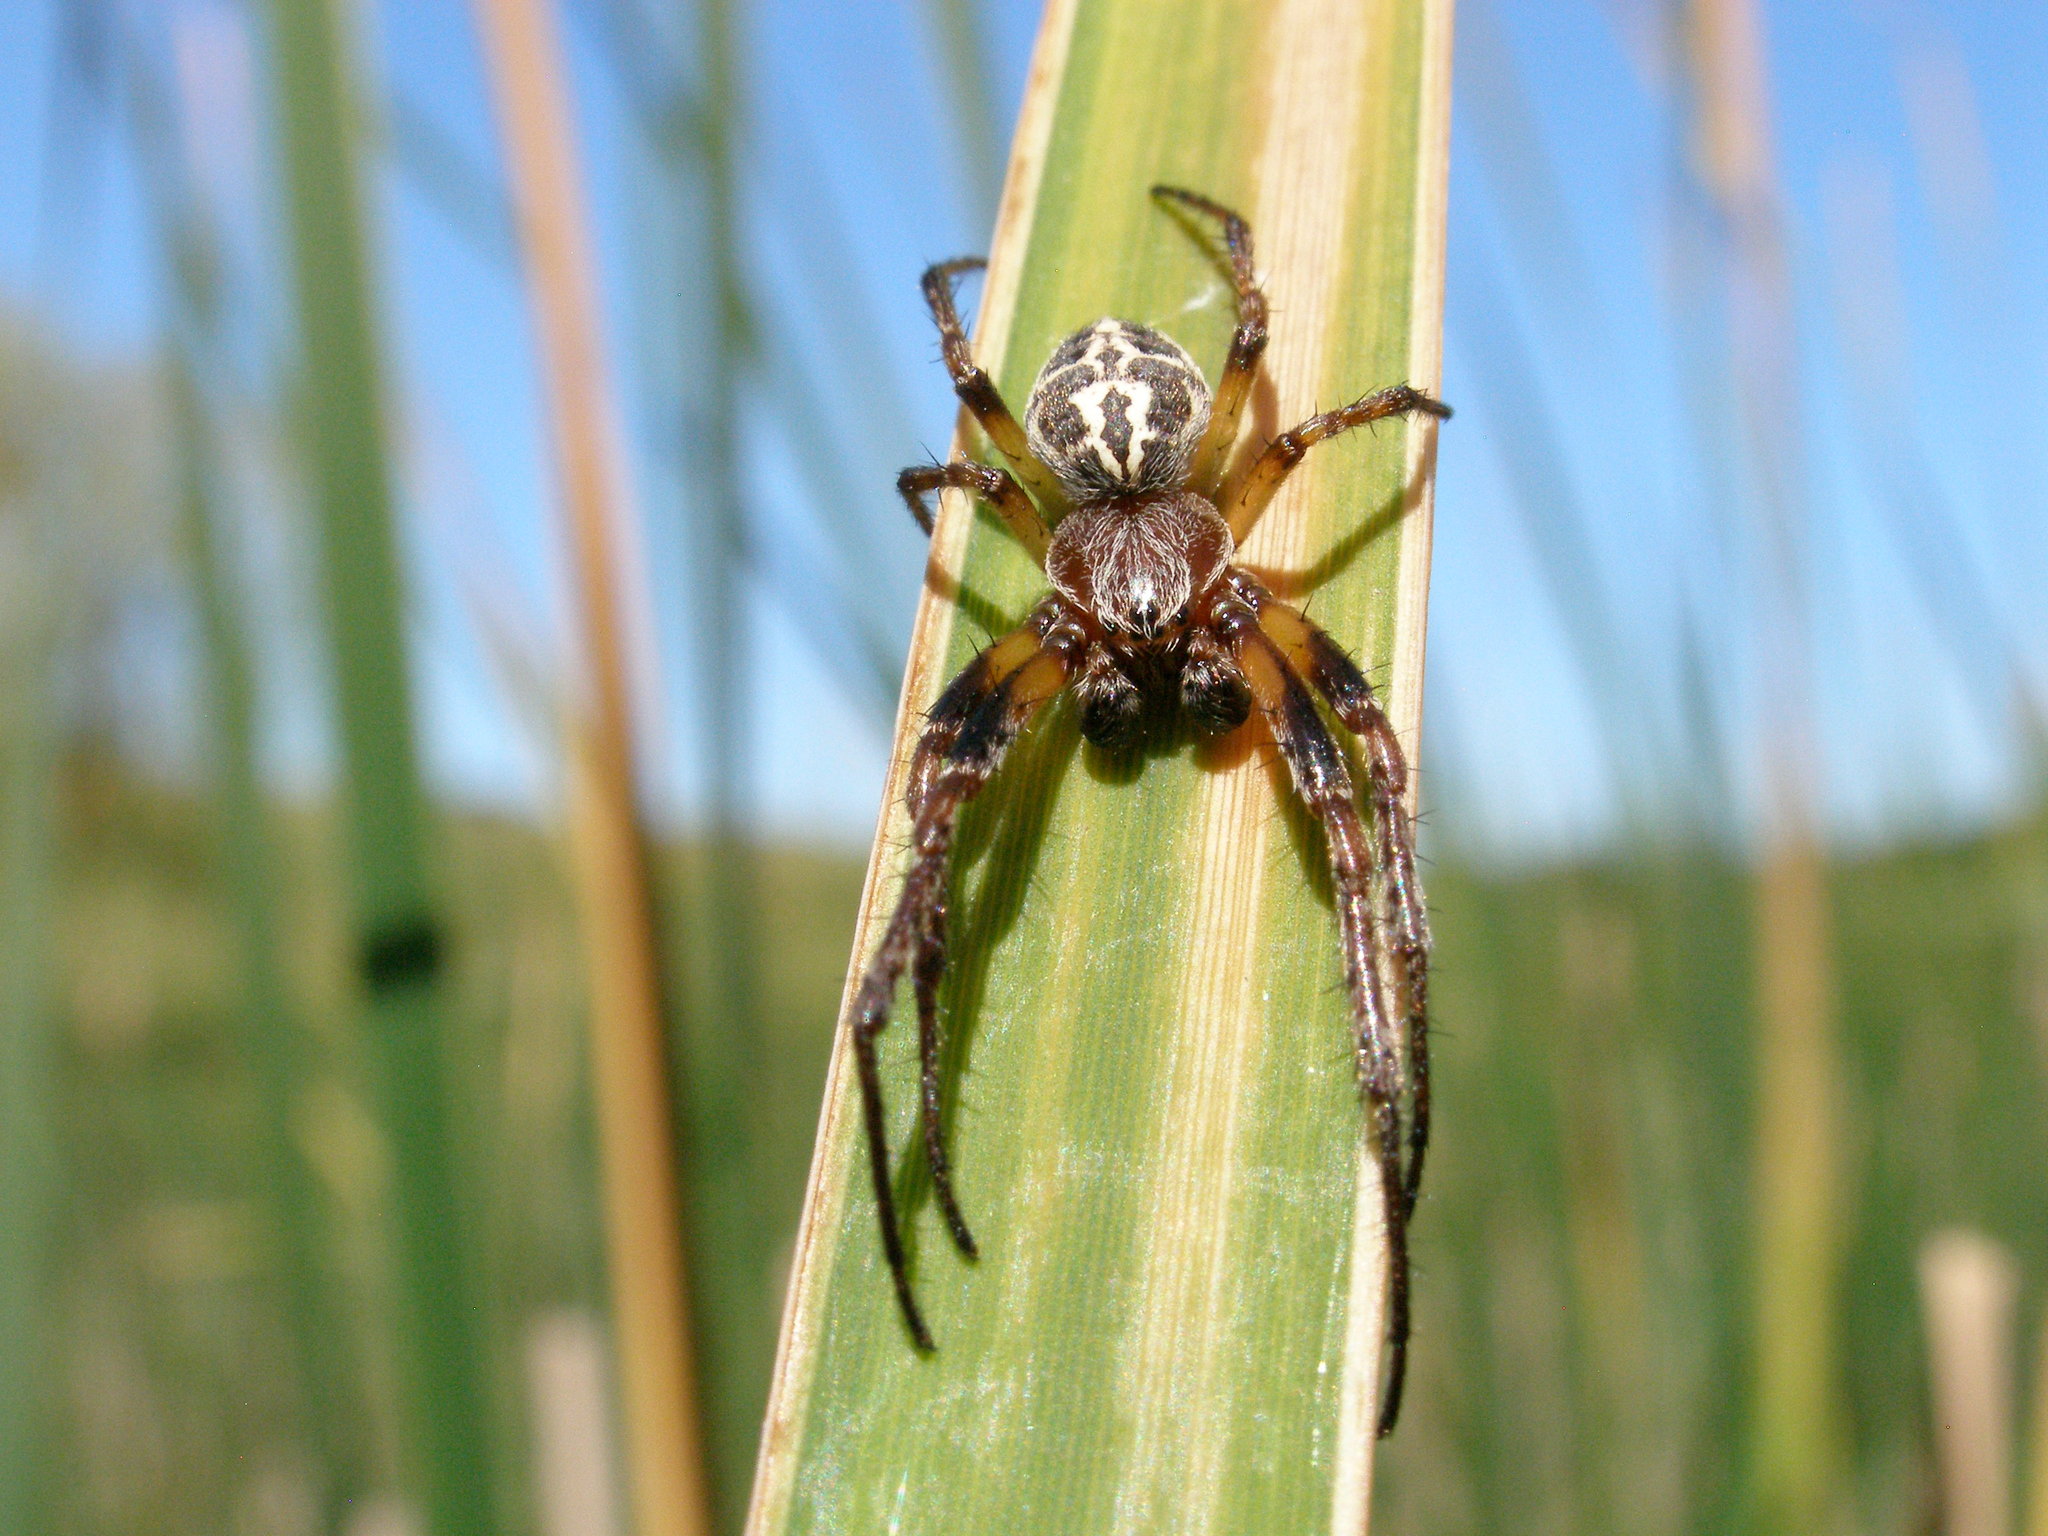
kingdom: Animalia
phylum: Arthropoda
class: Arachnida
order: Araneae
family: Araneidae
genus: Larinioides
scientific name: Larinioides cornutus
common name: Furrow orbweaver
